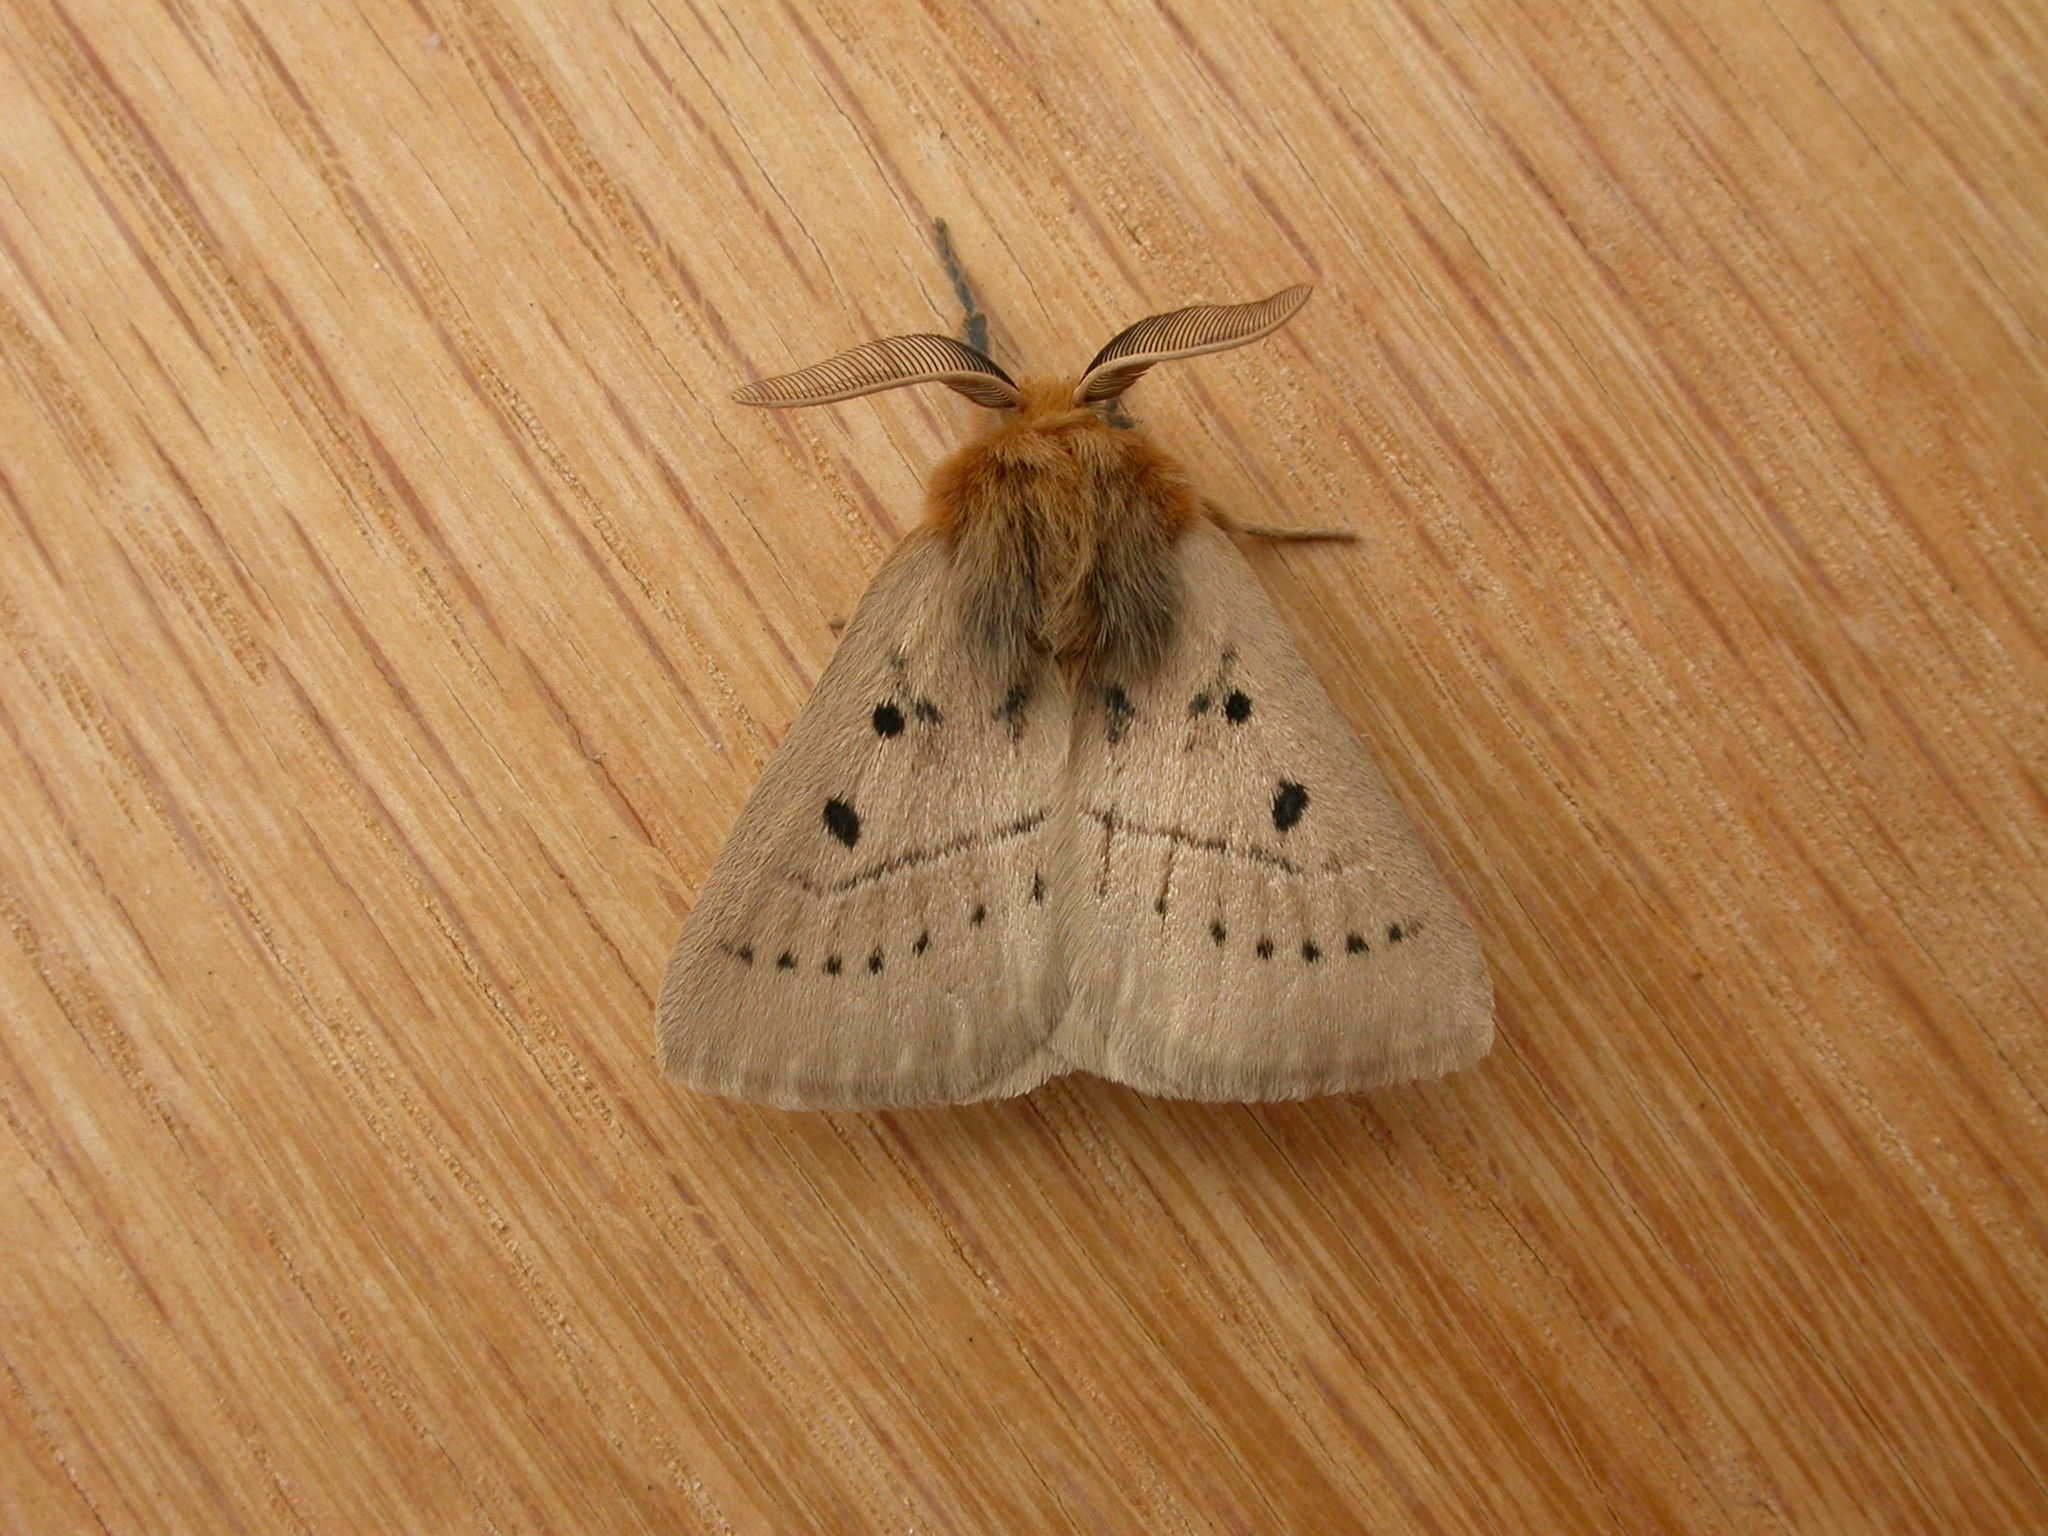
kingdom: Animalia
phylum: Arthropoda
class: Insecta
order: Lepidoptera
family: Anthelidae
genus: Anthela
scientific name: Anthela ocellata
